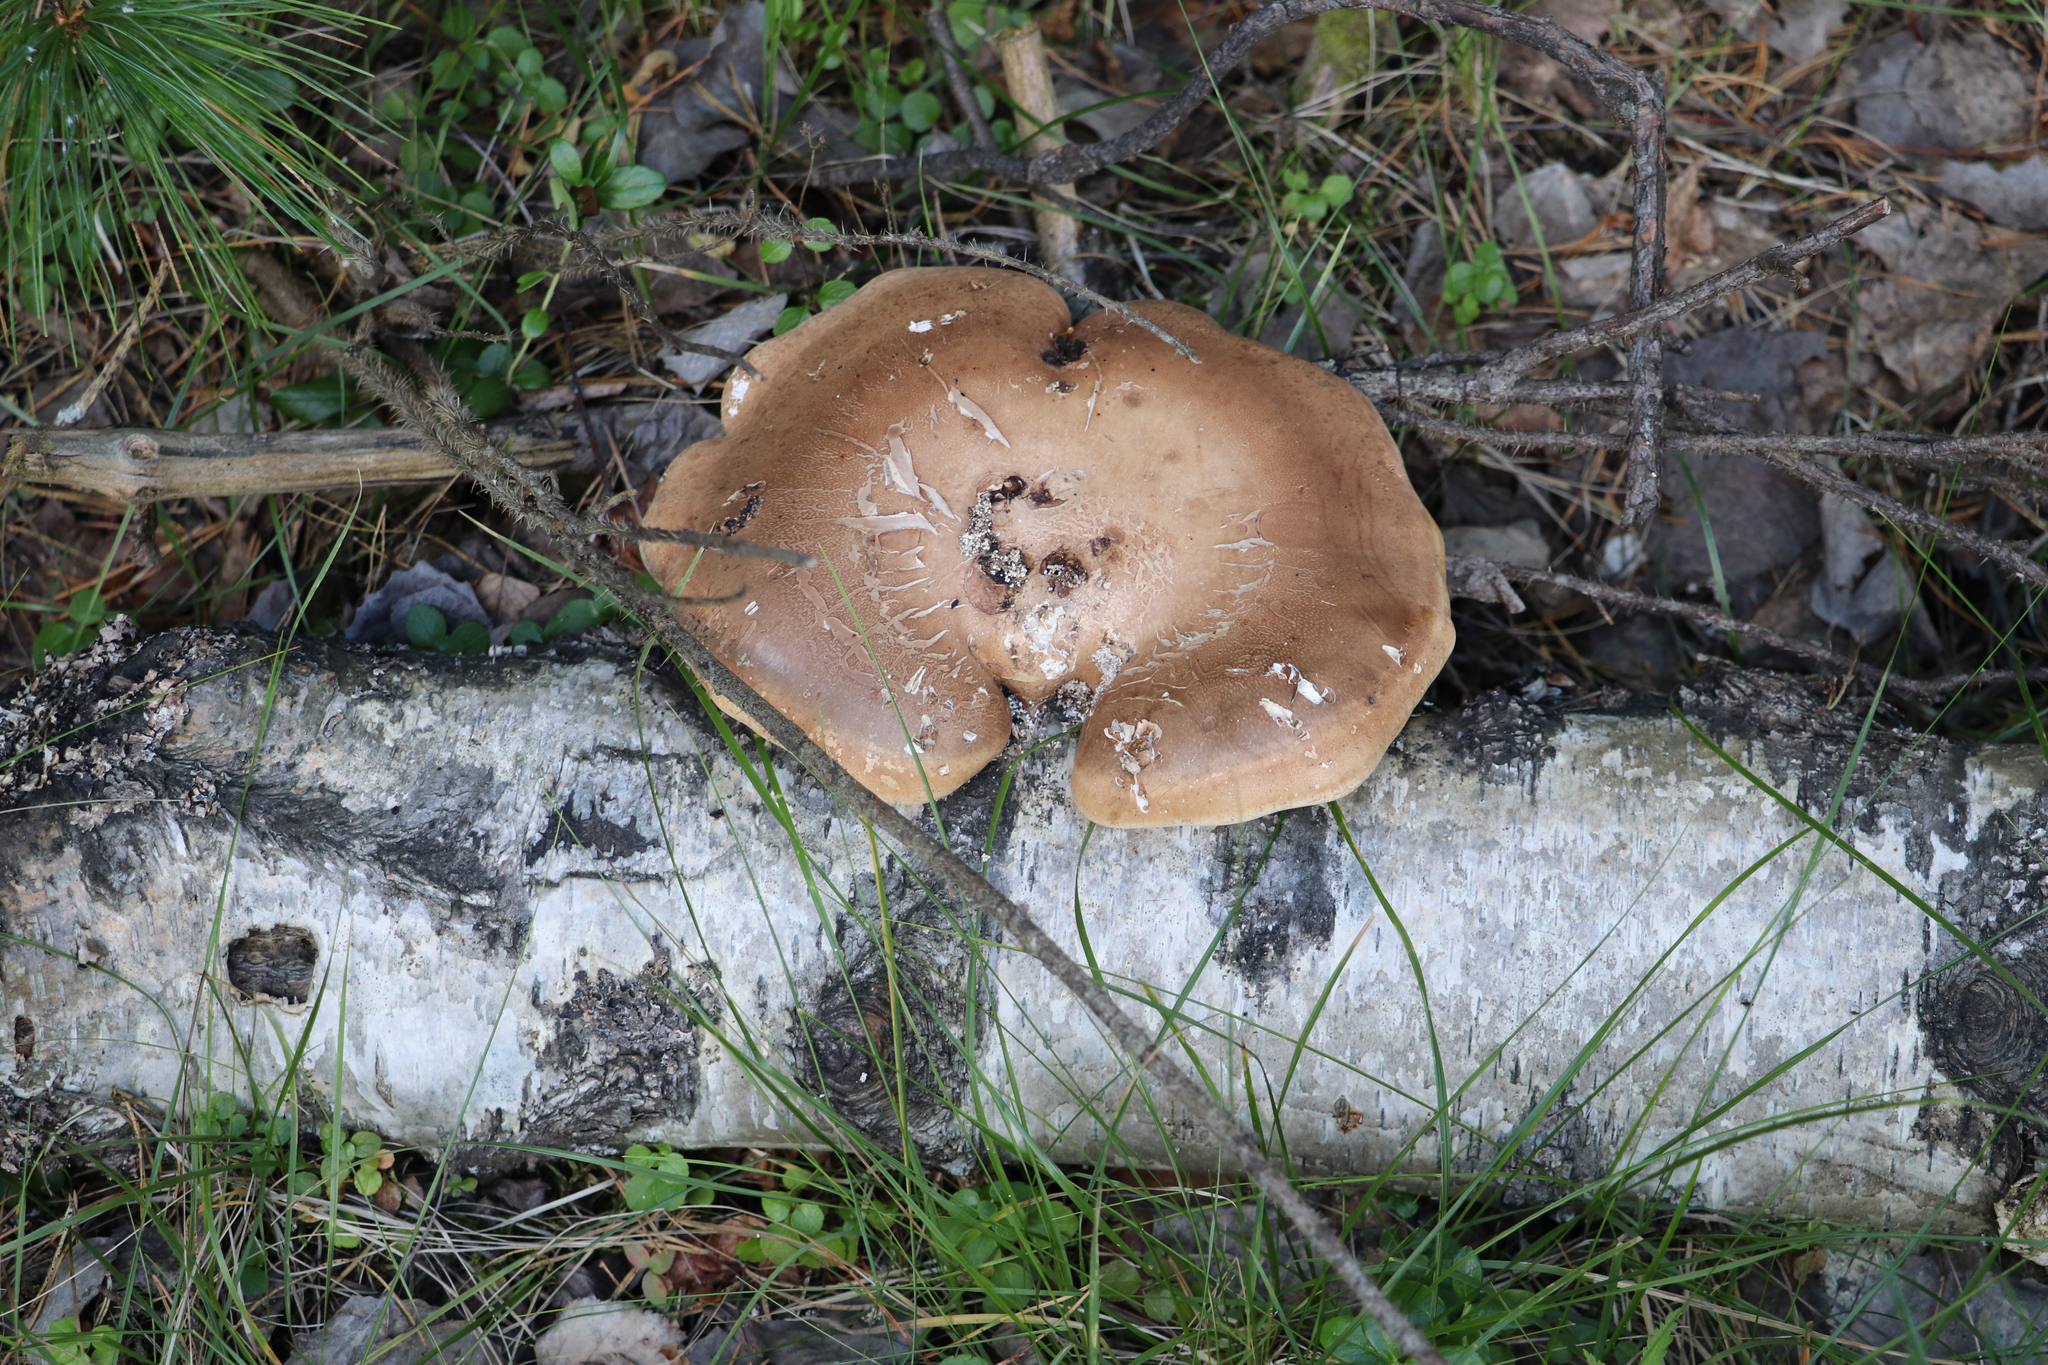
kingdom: Fungi
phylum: Basidiomycota
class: Agaricomycetes
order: Polyporales
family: Fomitopsidaceae
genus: Fomitopsis
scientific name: Fomitopsis betulina
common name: Birch polypore
